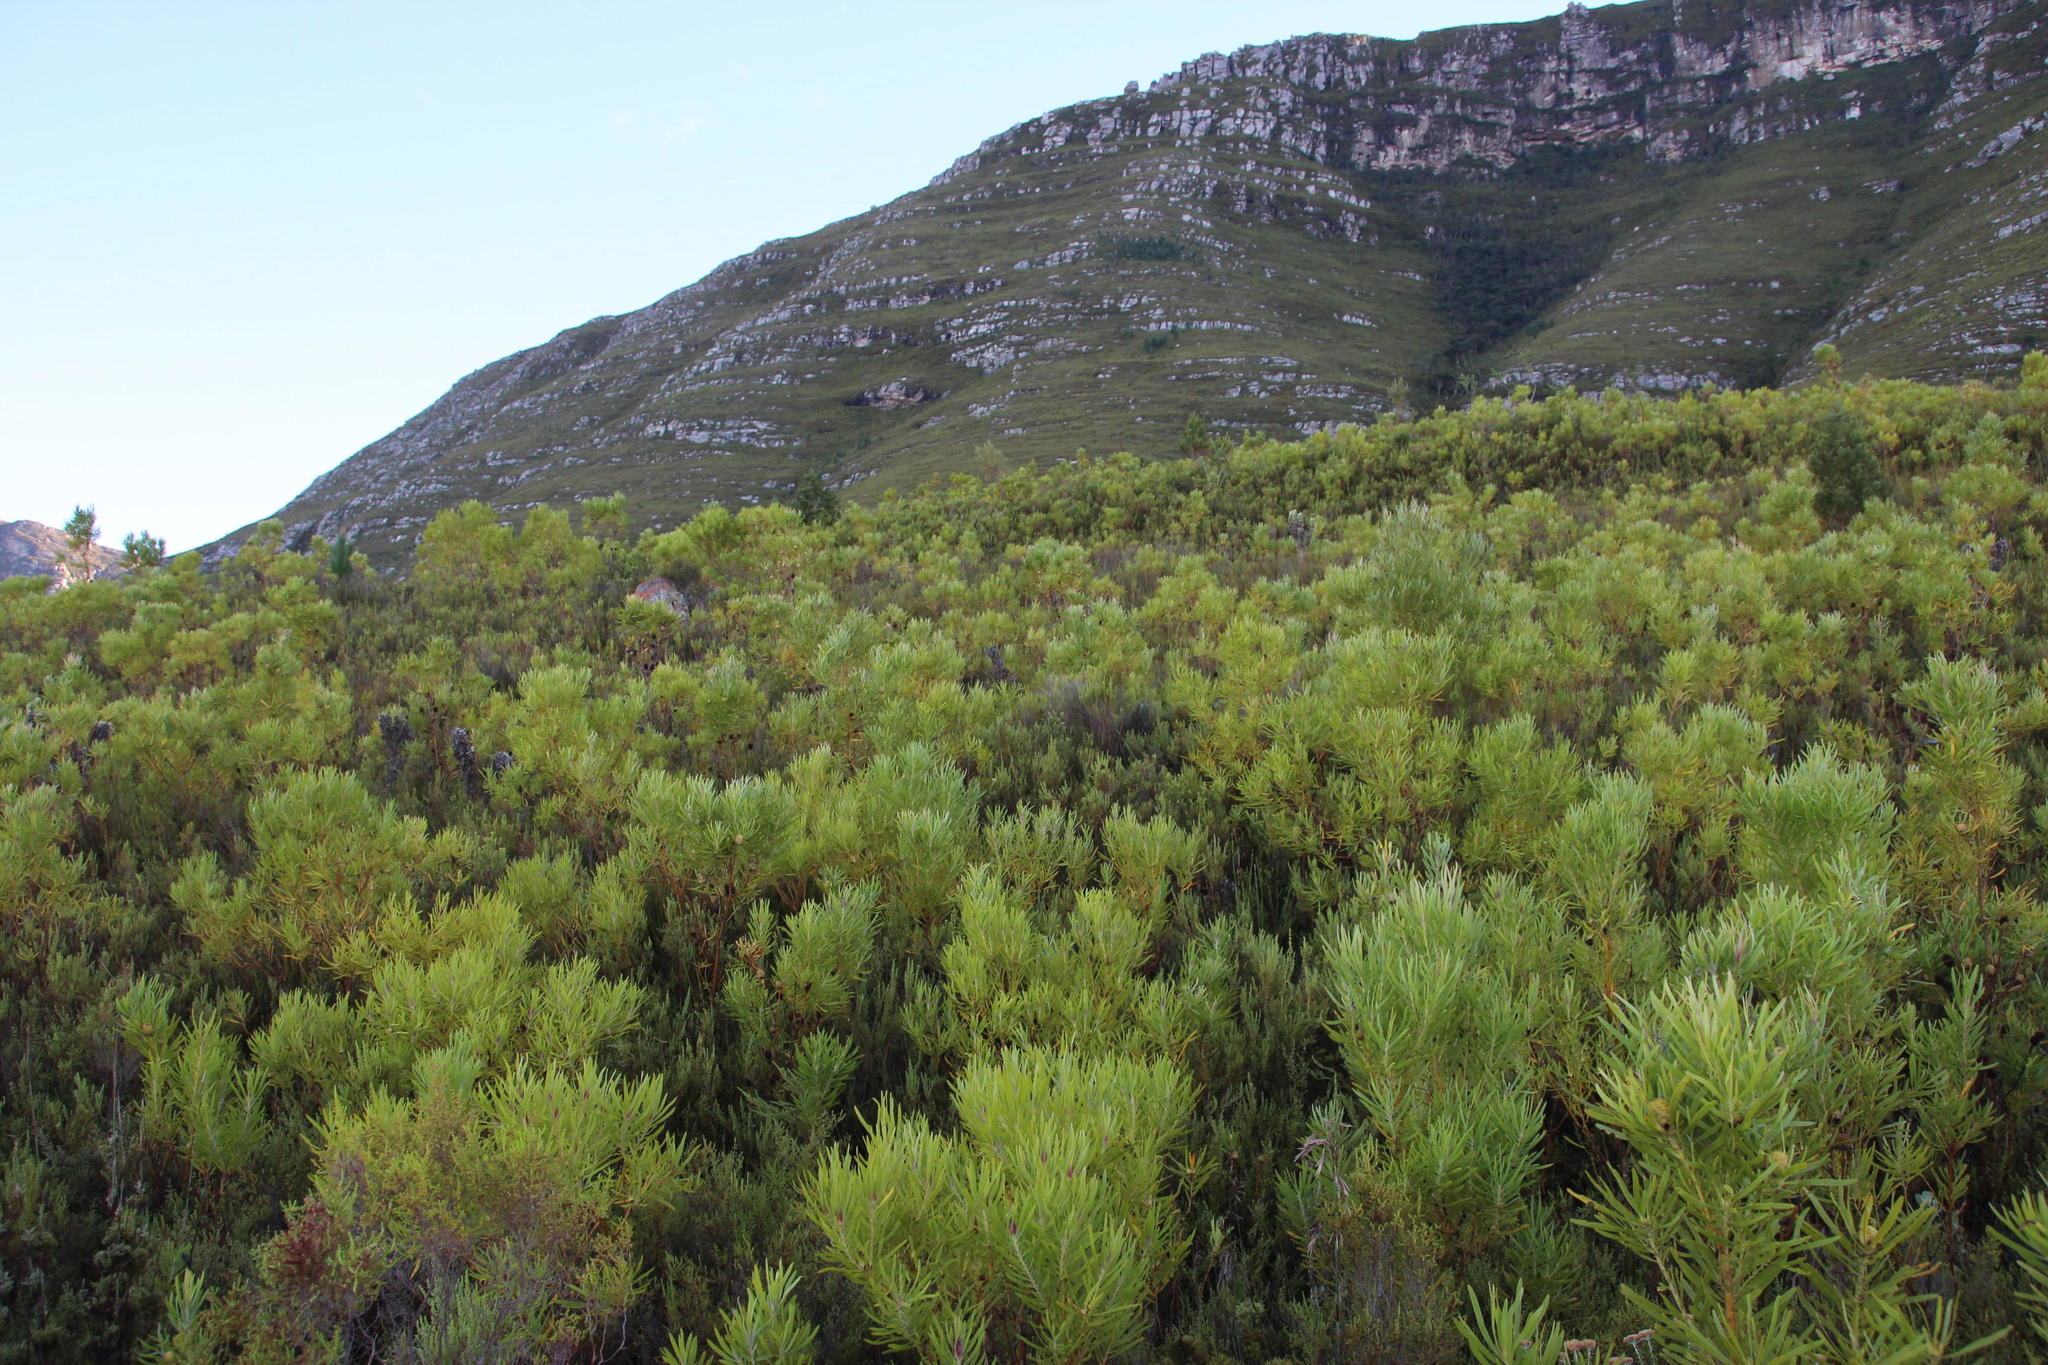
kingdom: Plantae
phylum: Tracheophyta
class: Magnoliopsida
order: Proteales
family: Proteaceae
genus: Leucadendron
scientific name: Leucadendron eucalyptifolium
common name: Gum-leaved conebush
